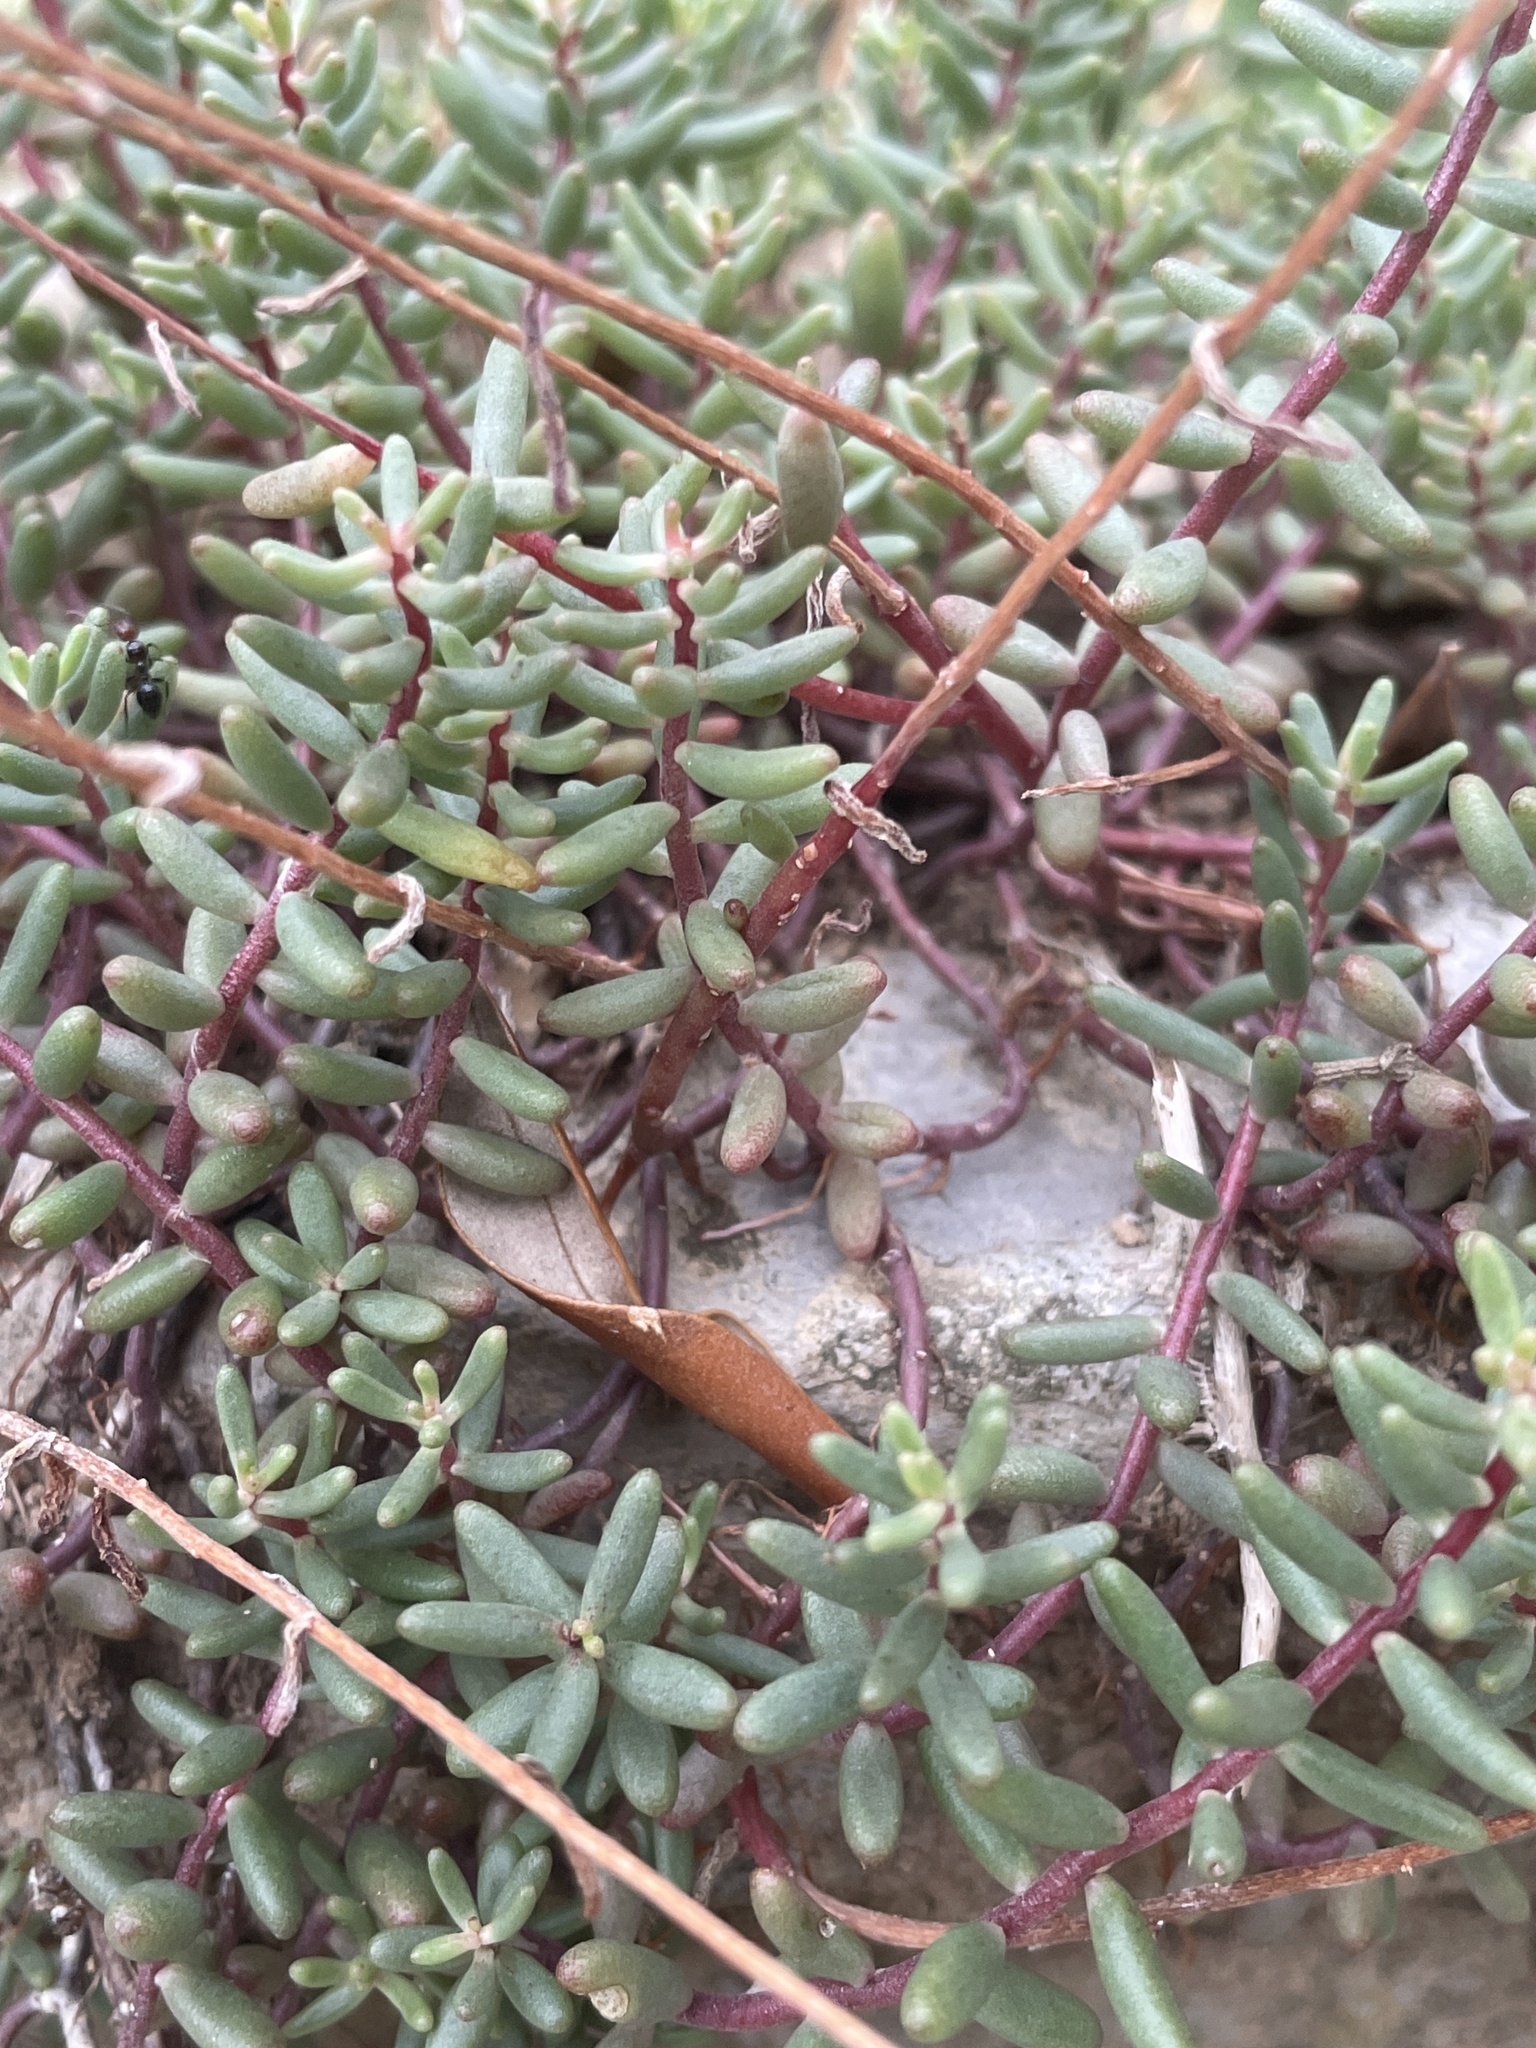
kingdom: Plantae
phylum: Tracheophyta
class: Magnoliopsida
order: Saxifragales
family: Crassulaceae
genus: Sedum
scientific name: Sedum album
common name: White stonecrop
